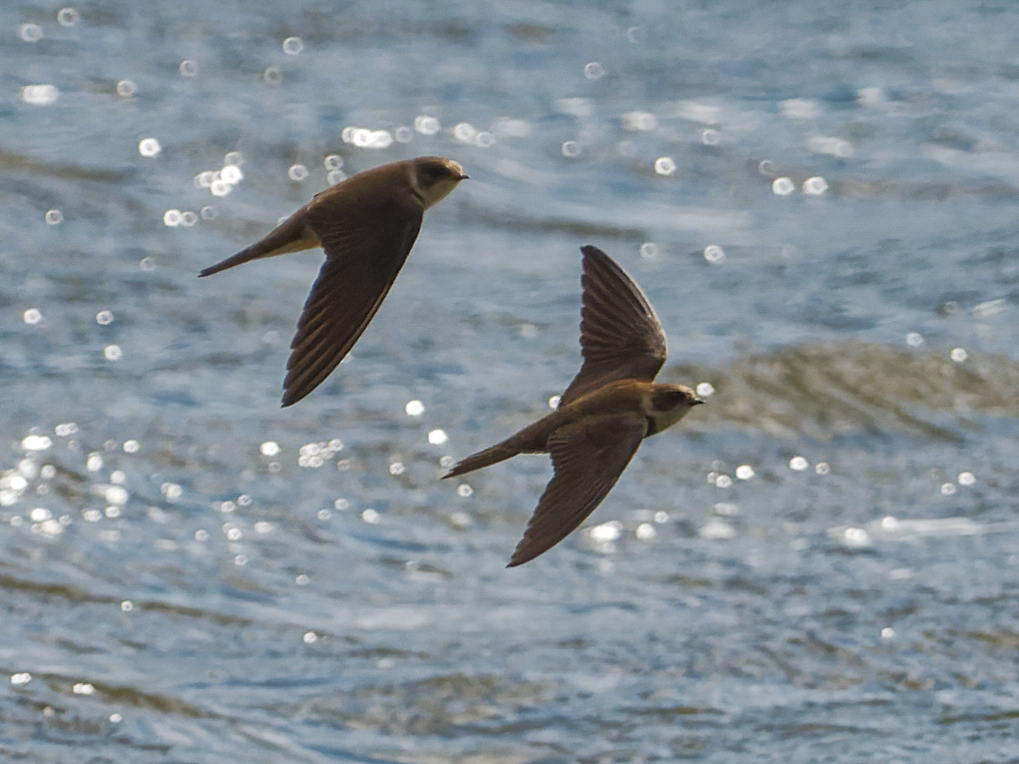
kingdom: Animalia
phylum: Chordata
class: Aves
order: Passeriformes
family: Hirundinidae
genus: Riparia
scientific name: Riparia riparia
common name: Sand martin
